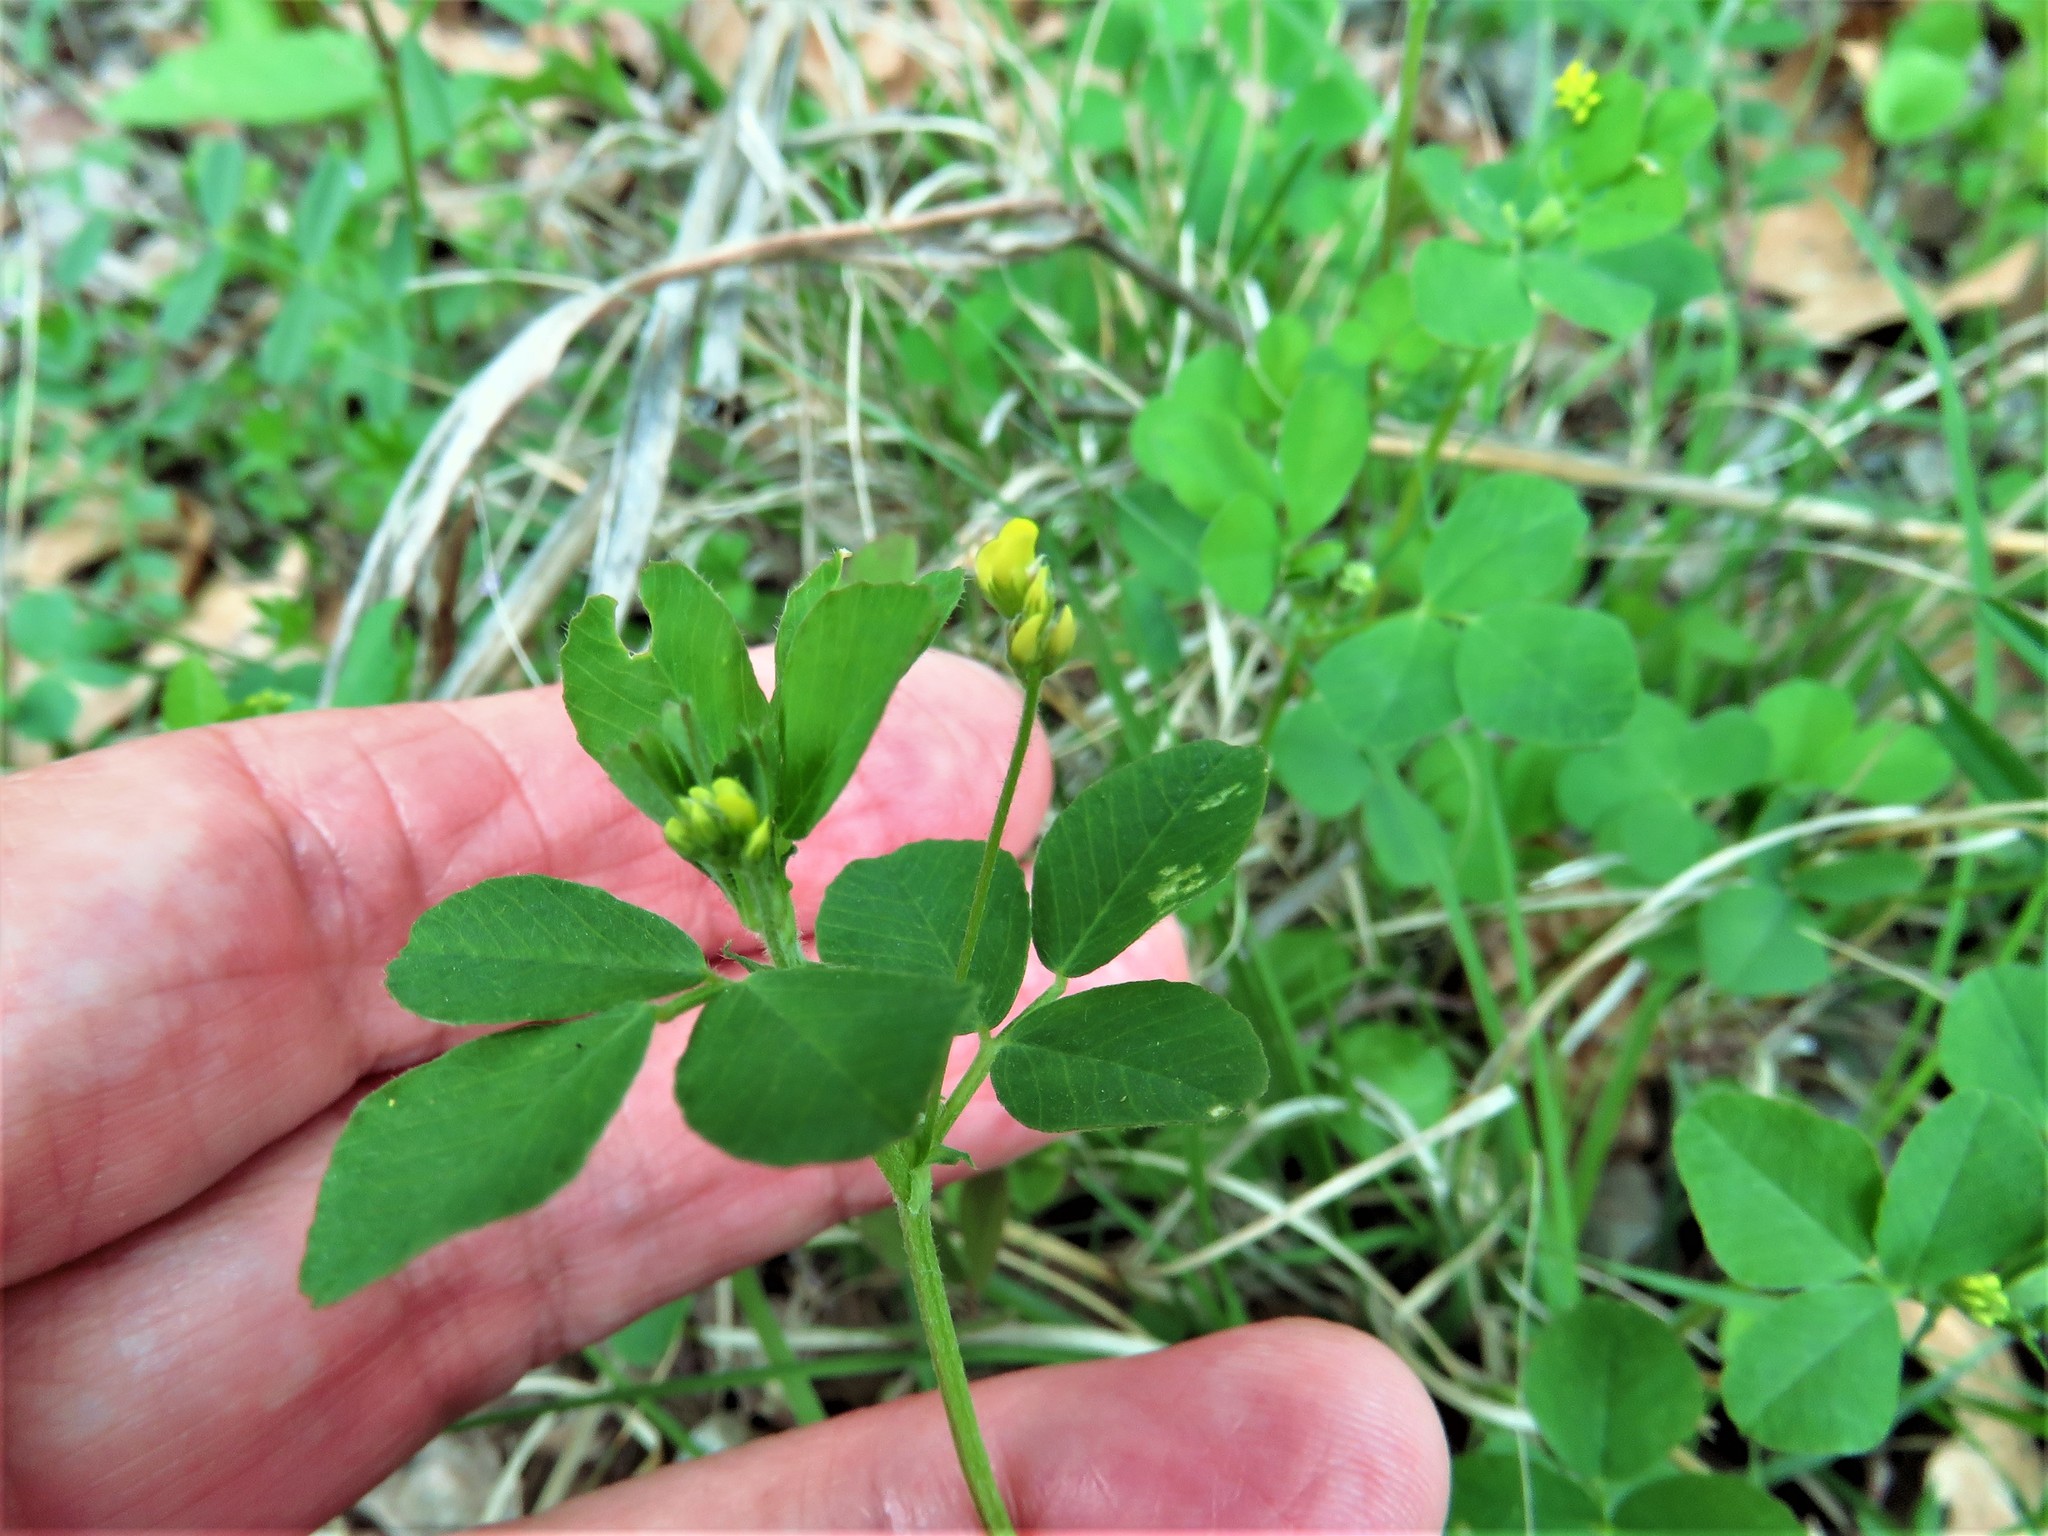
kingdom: Plantae
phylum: Tracheophyta
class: Magnoliopsida
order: Fabales
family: Fabaceae
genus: Medicago
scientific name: Medicago lupulina
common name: Black medick
